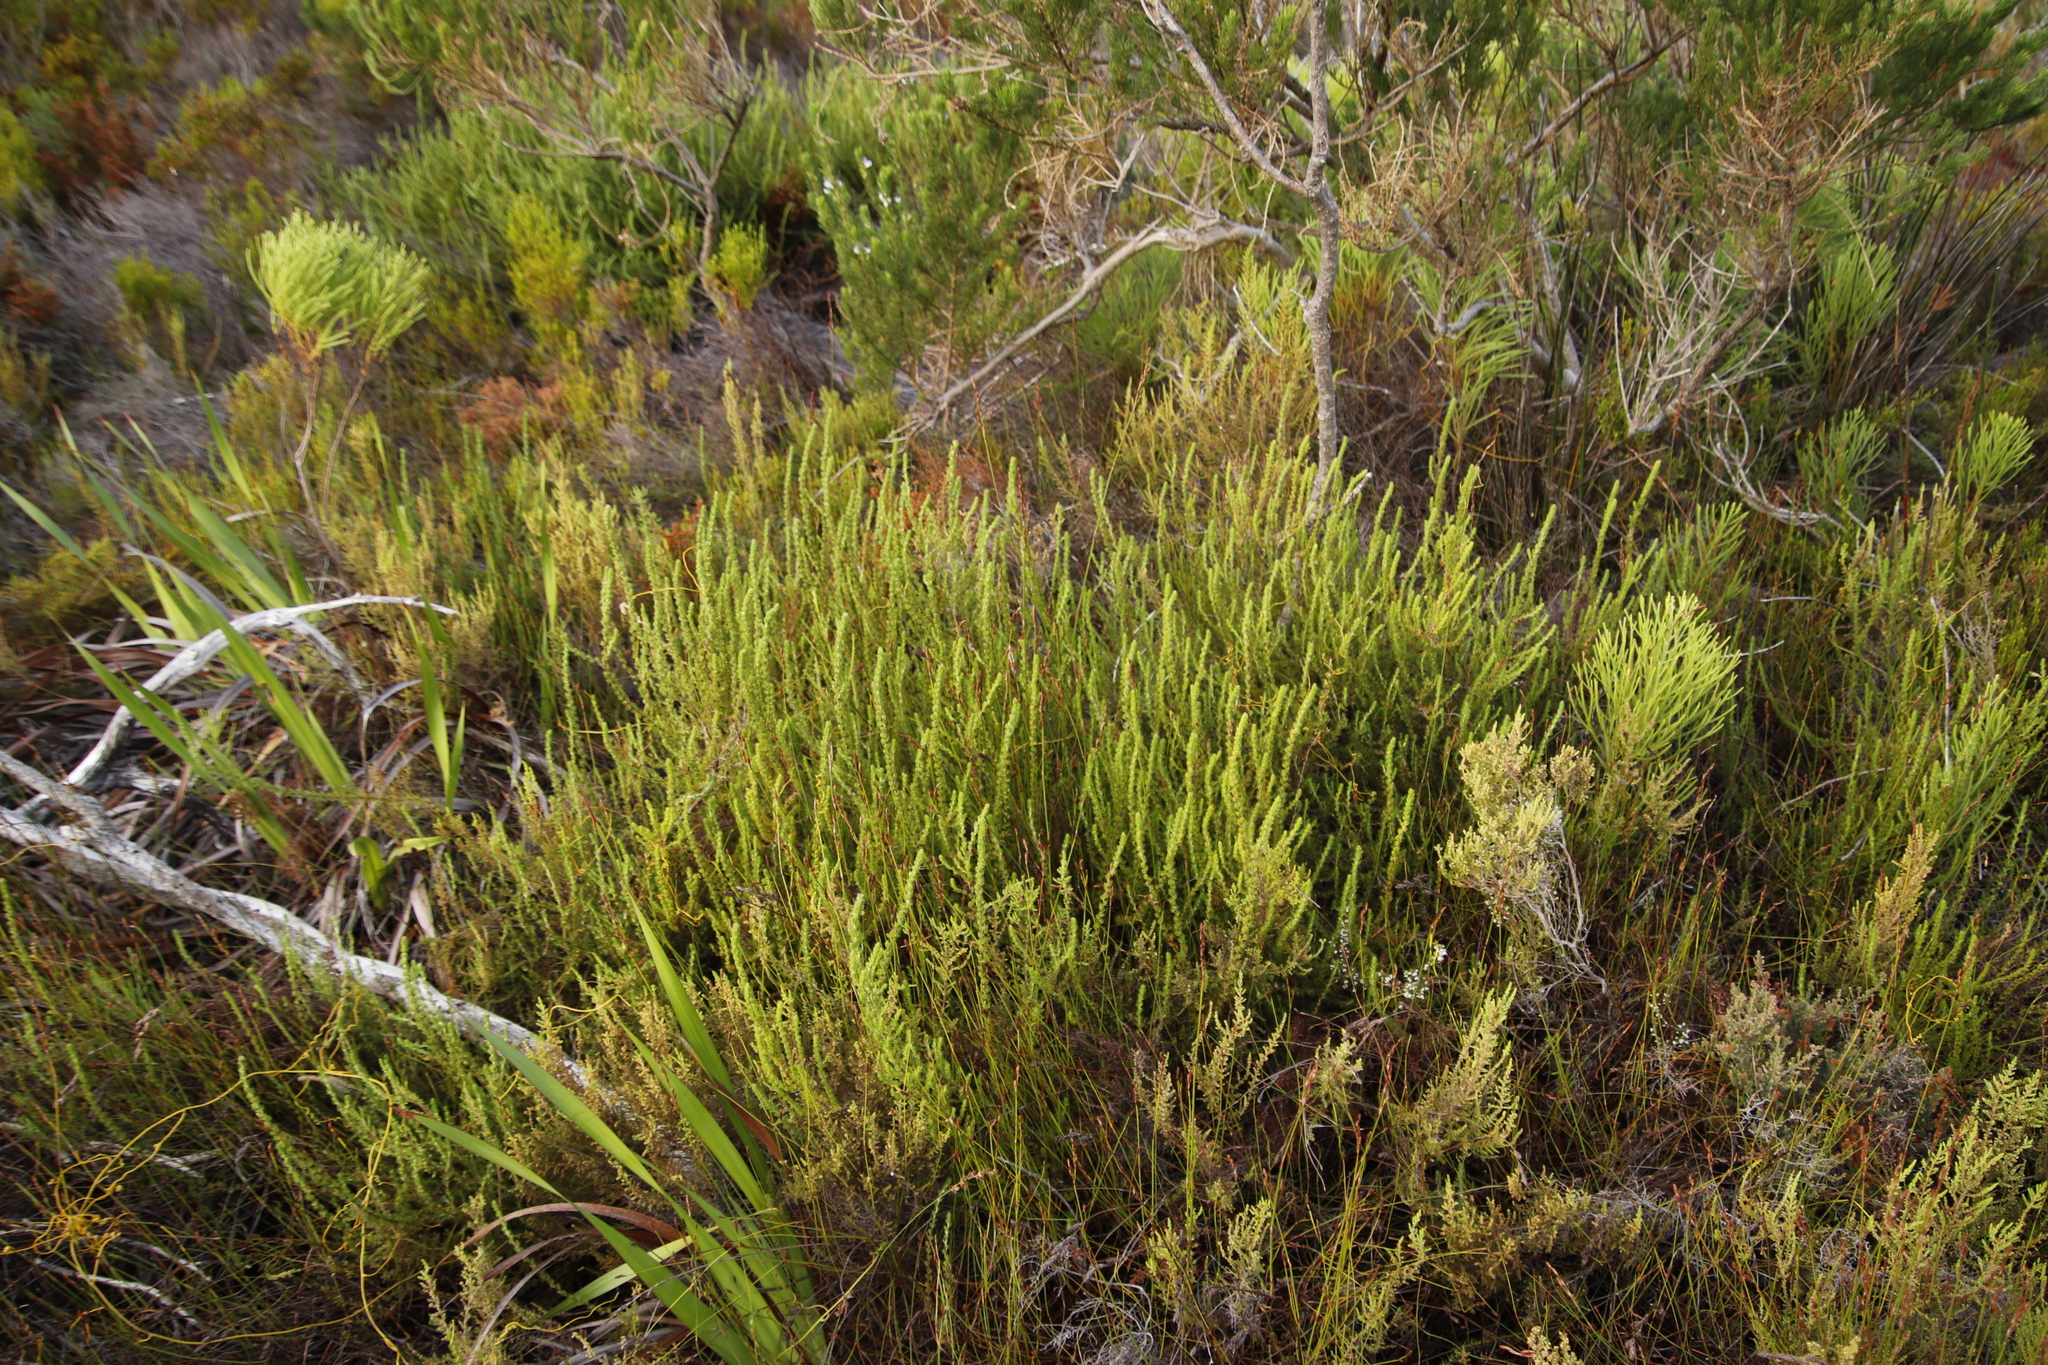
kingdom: Plantae
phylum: Tracheophyta
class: Magnoliopsida
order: Rosales
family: Rosaceae
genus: Cliffortia
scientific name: Cliffortia atrata
